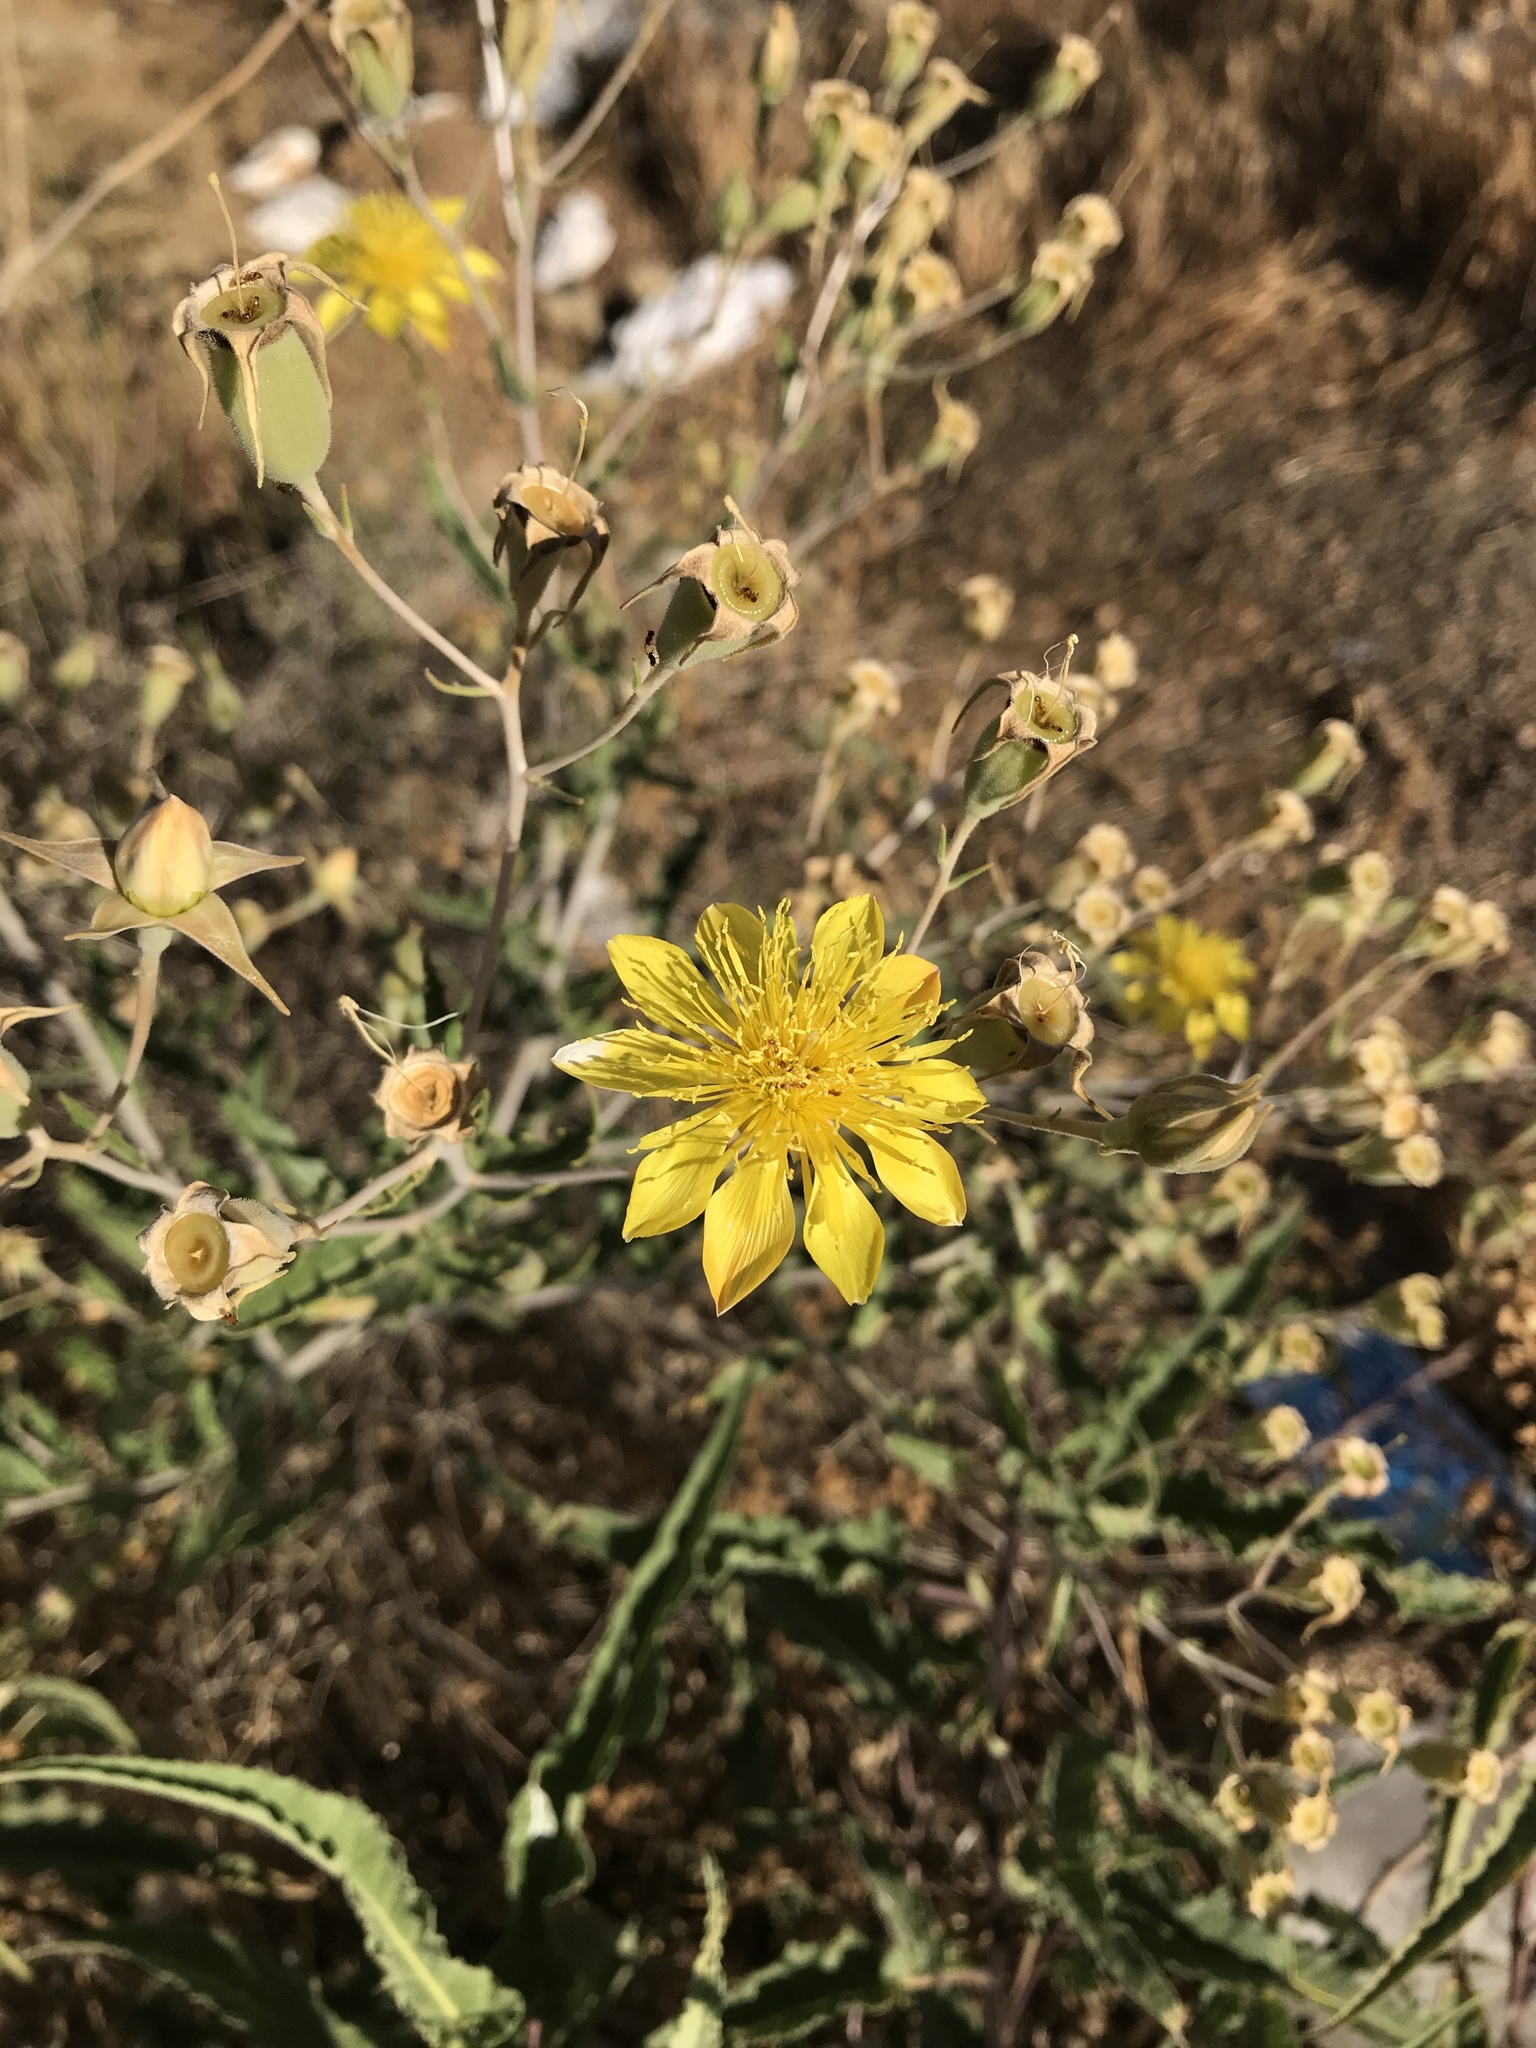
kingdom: Plantae
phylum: Tracheophyta
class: Magnoliopsida
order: Cornales
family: Loasaceae
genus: Mentzelia
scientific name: Mentzelia longiloba
